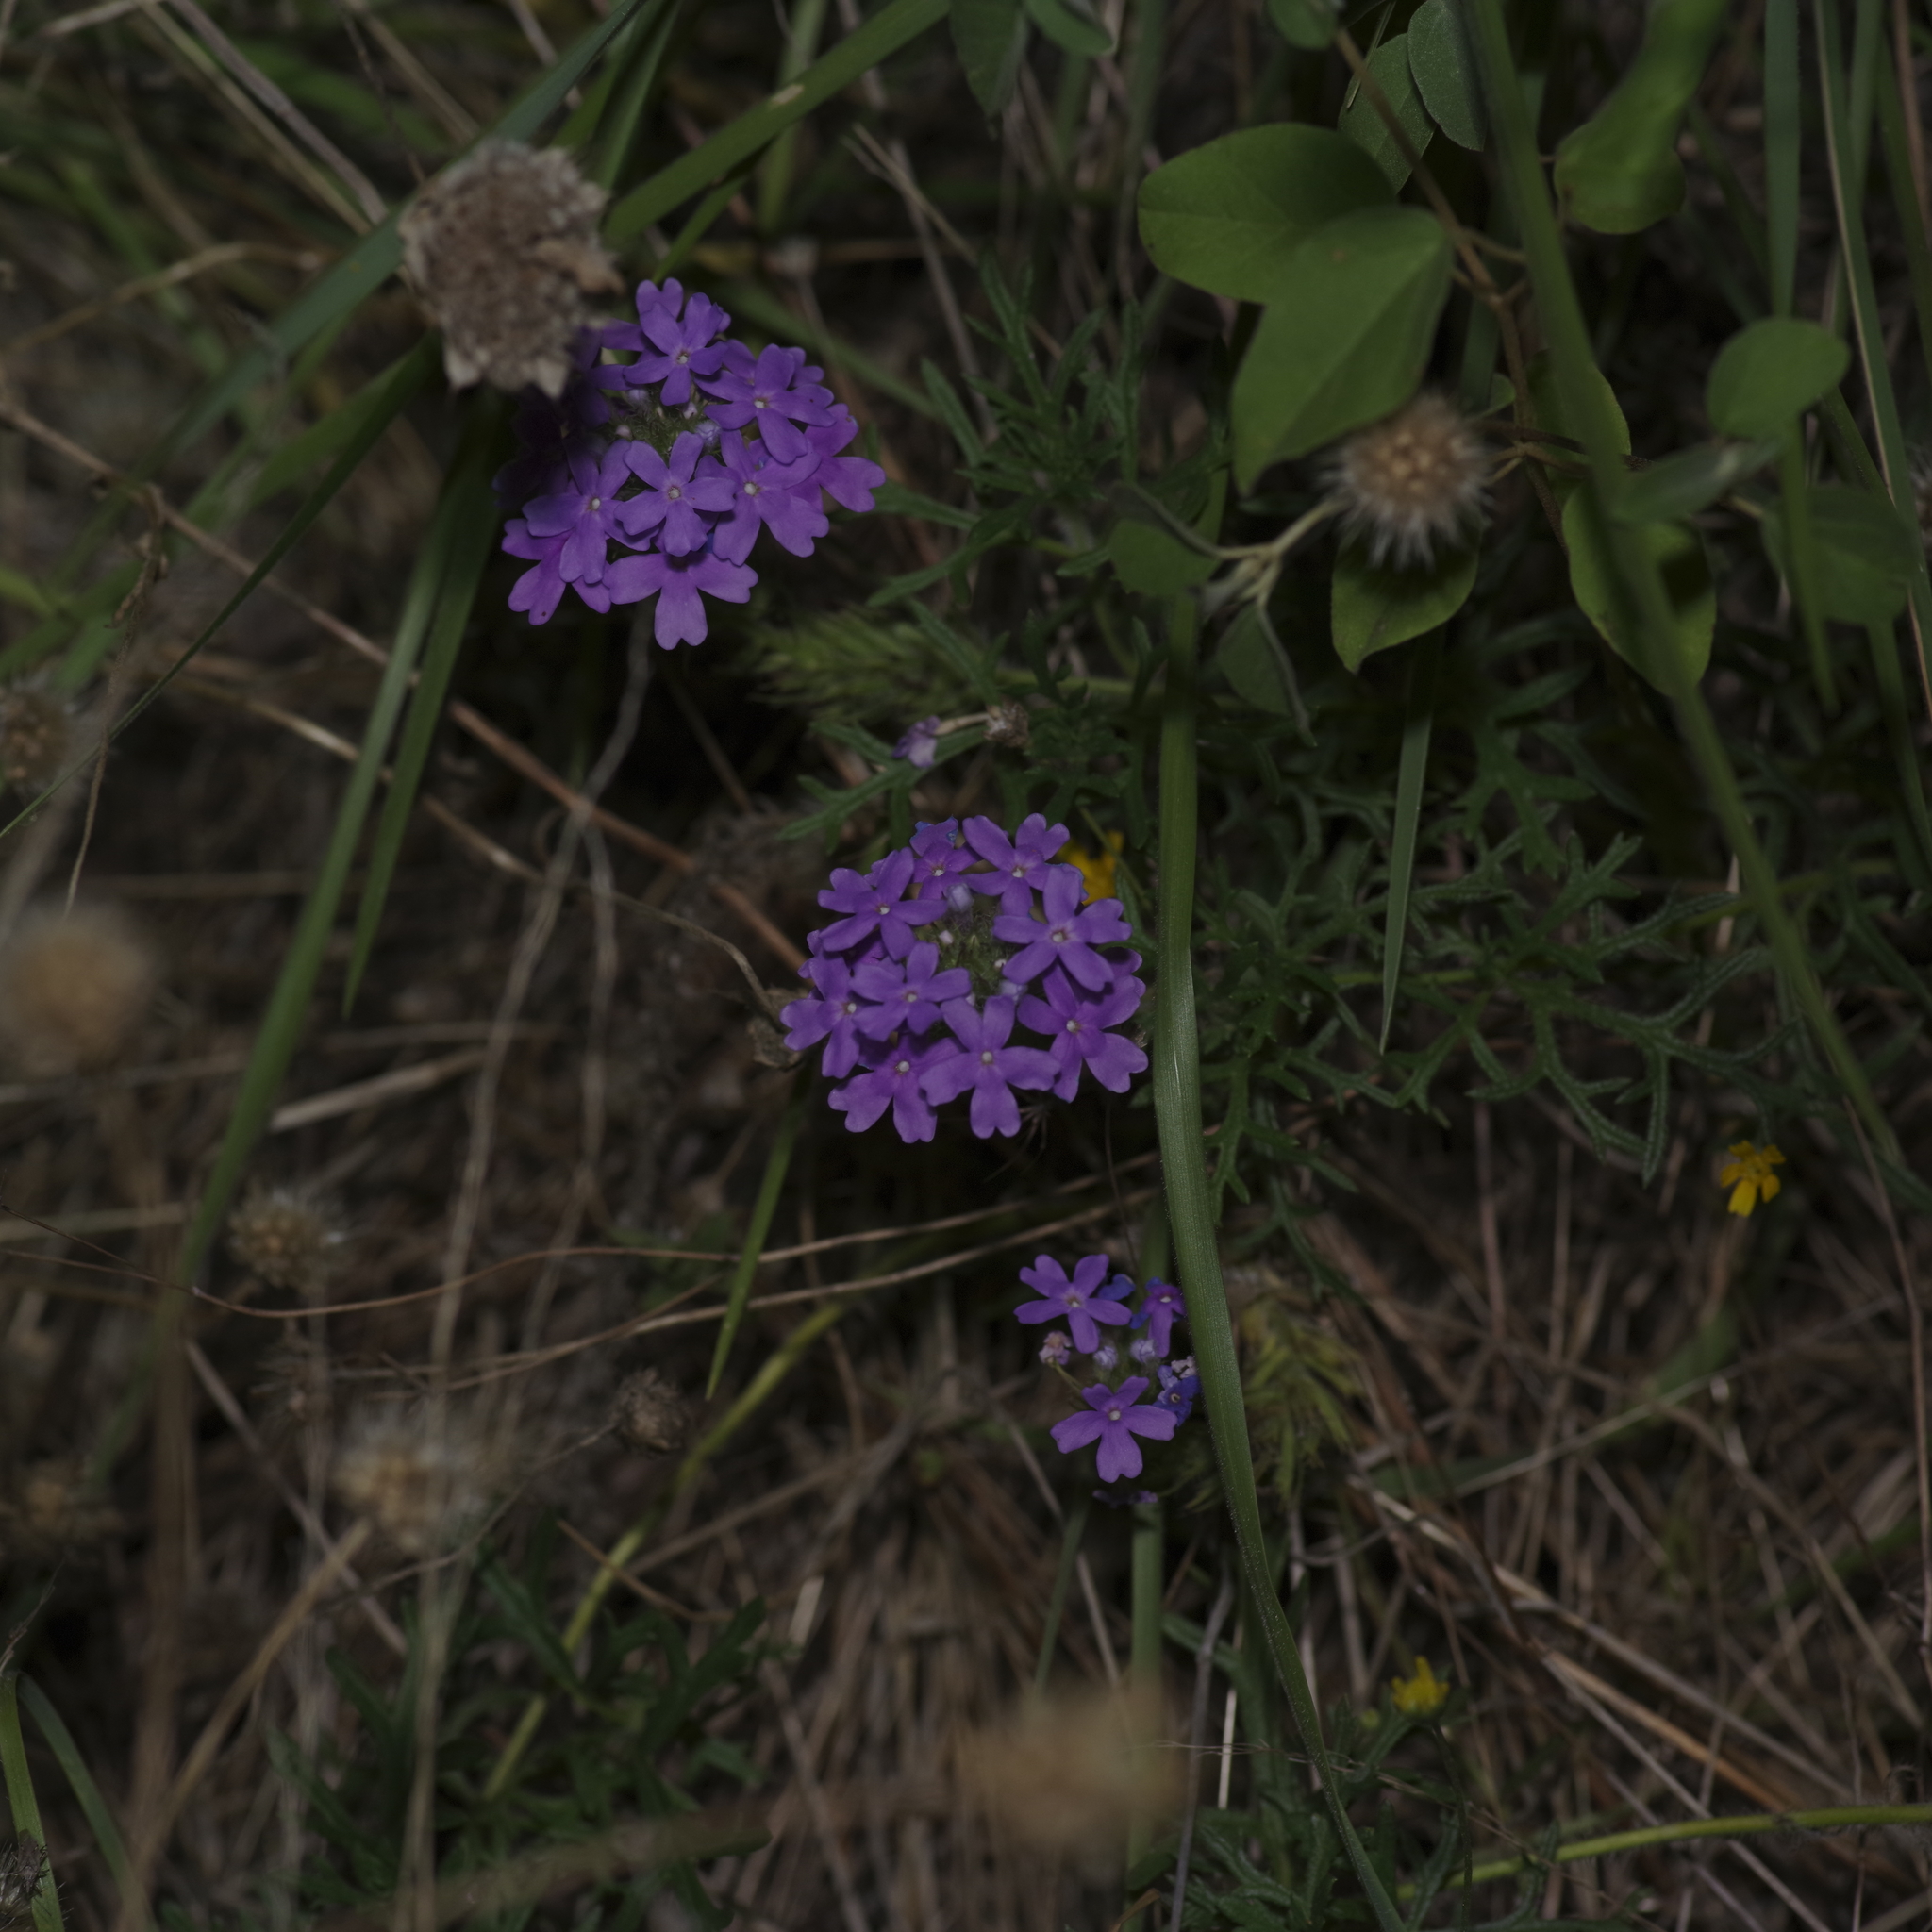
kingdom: Plantae
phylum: Tracheophyta
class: Magnoliopsida
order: Lamiales
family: Verbenaceae
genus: Verbena
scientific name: Verbena bipinnatifida
